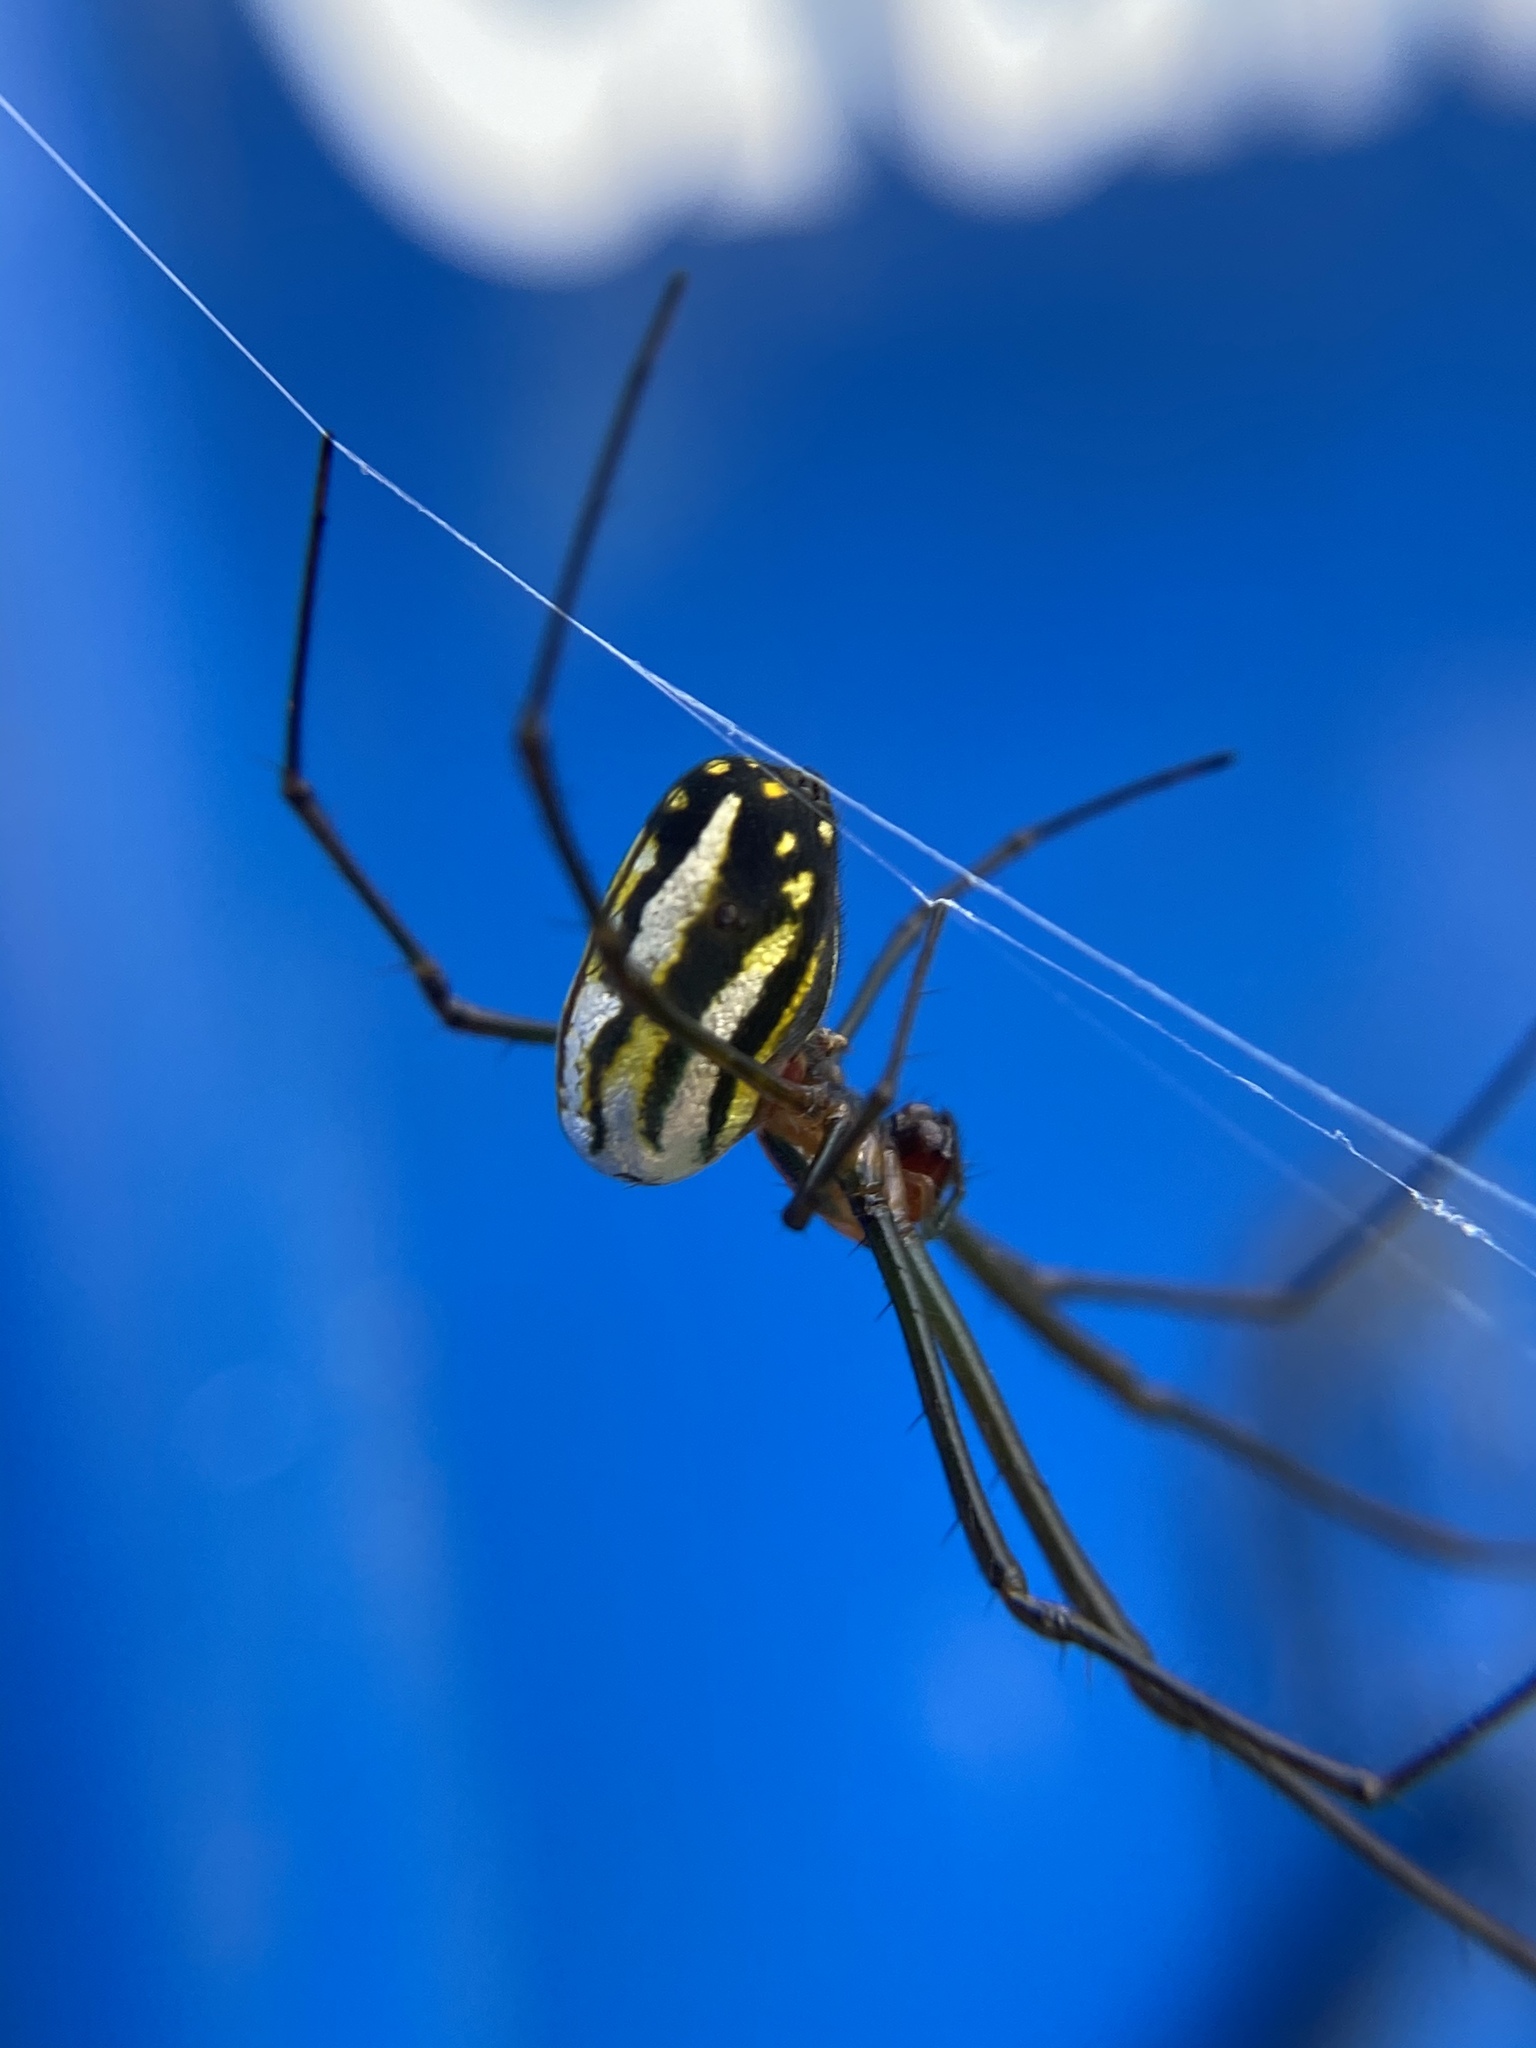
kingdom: Animalia
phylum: Arthropoda
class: Arachnida
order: Araneae
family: Tetragnathidae
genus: Leucauge
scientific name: Leucauge argyra
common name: Longjawed orb weavers
